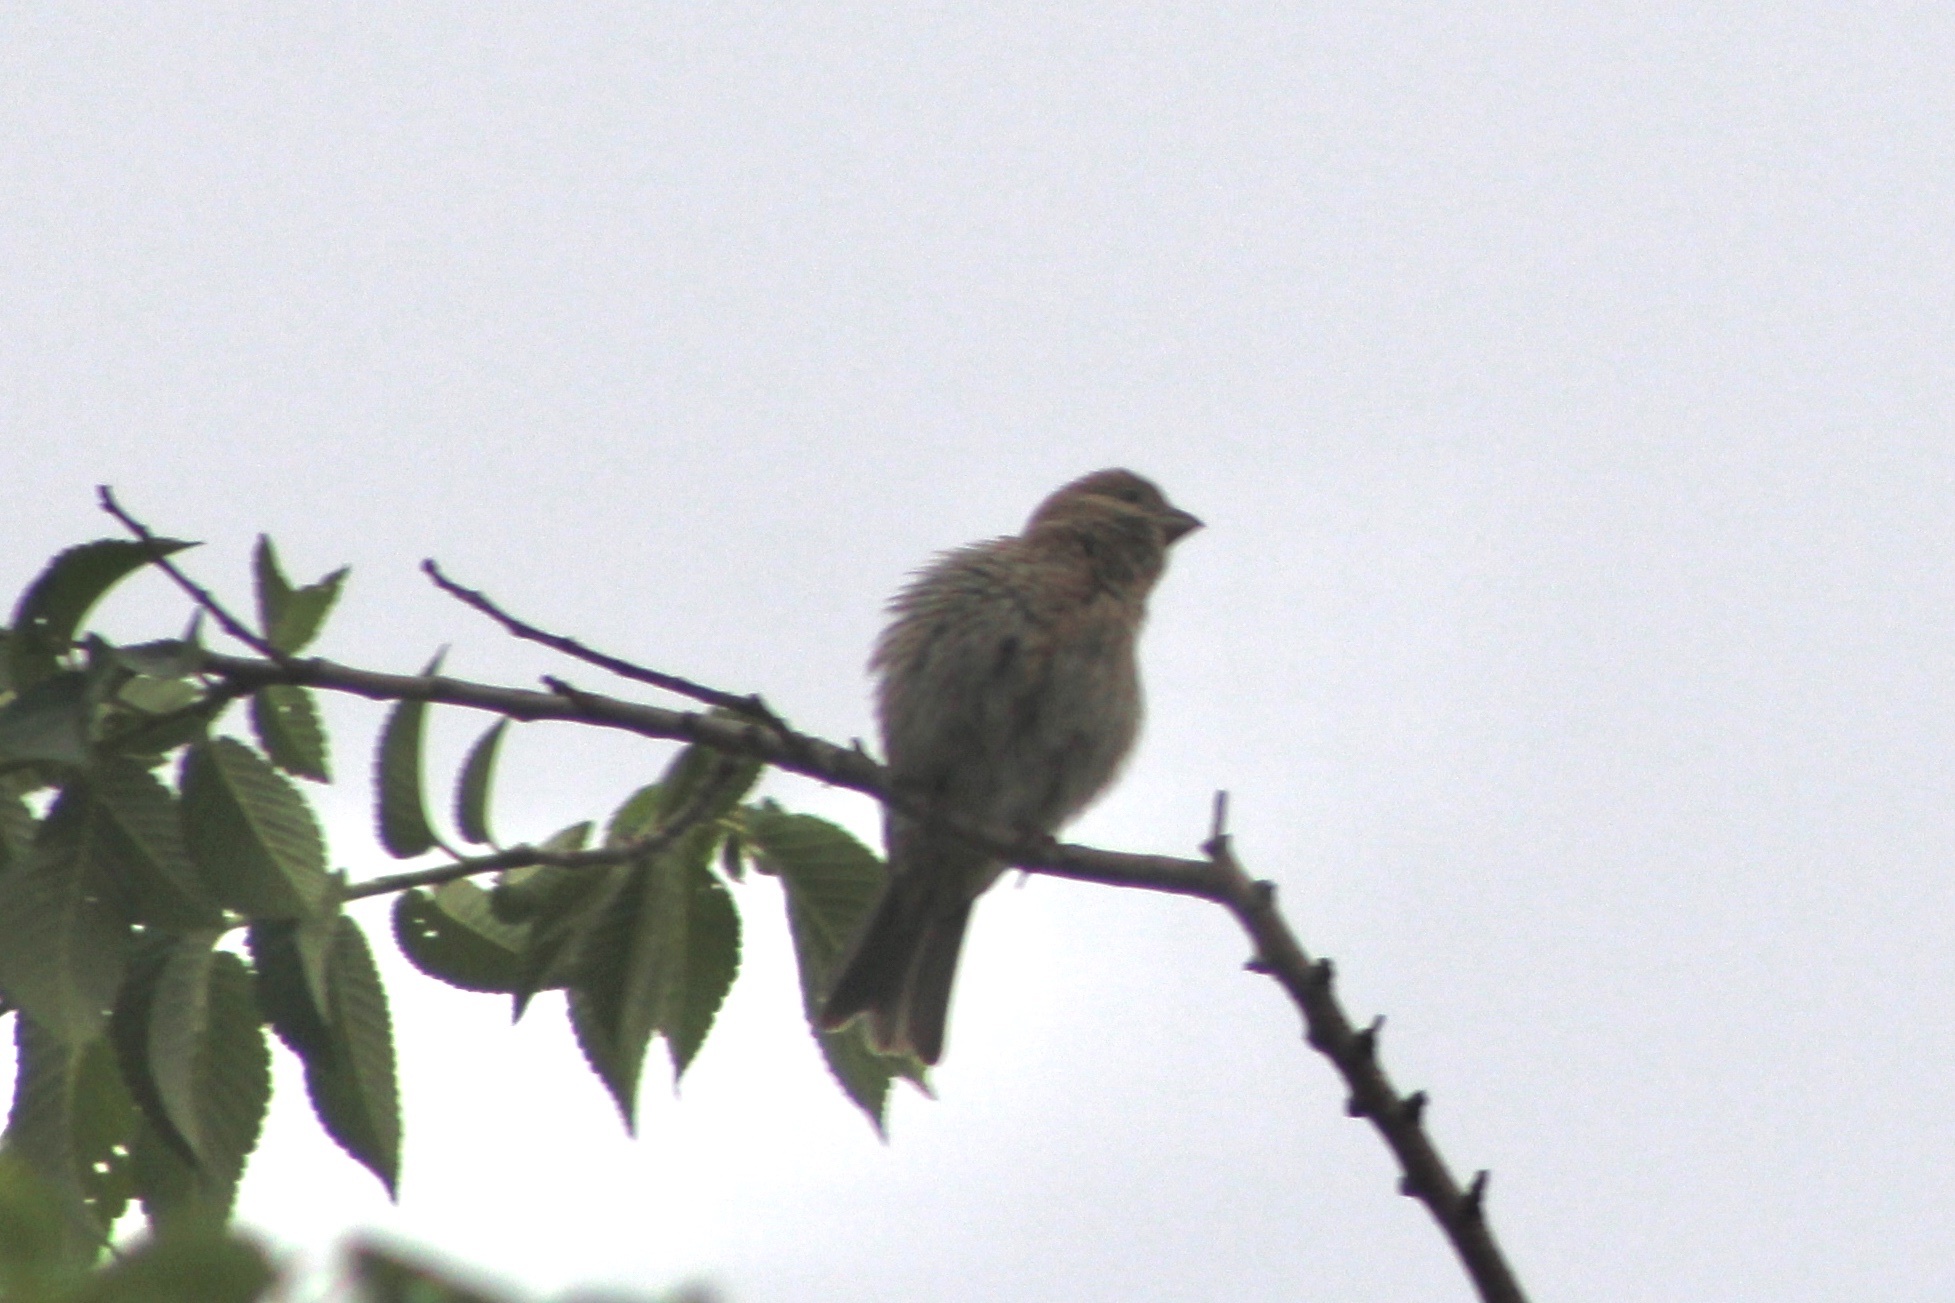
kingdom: Animalia
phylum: Chordata
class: Aves
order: Passeriformes
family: Fringillidae
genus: Haemorhous
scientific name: Haemorhous mexicanus
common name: House finch
